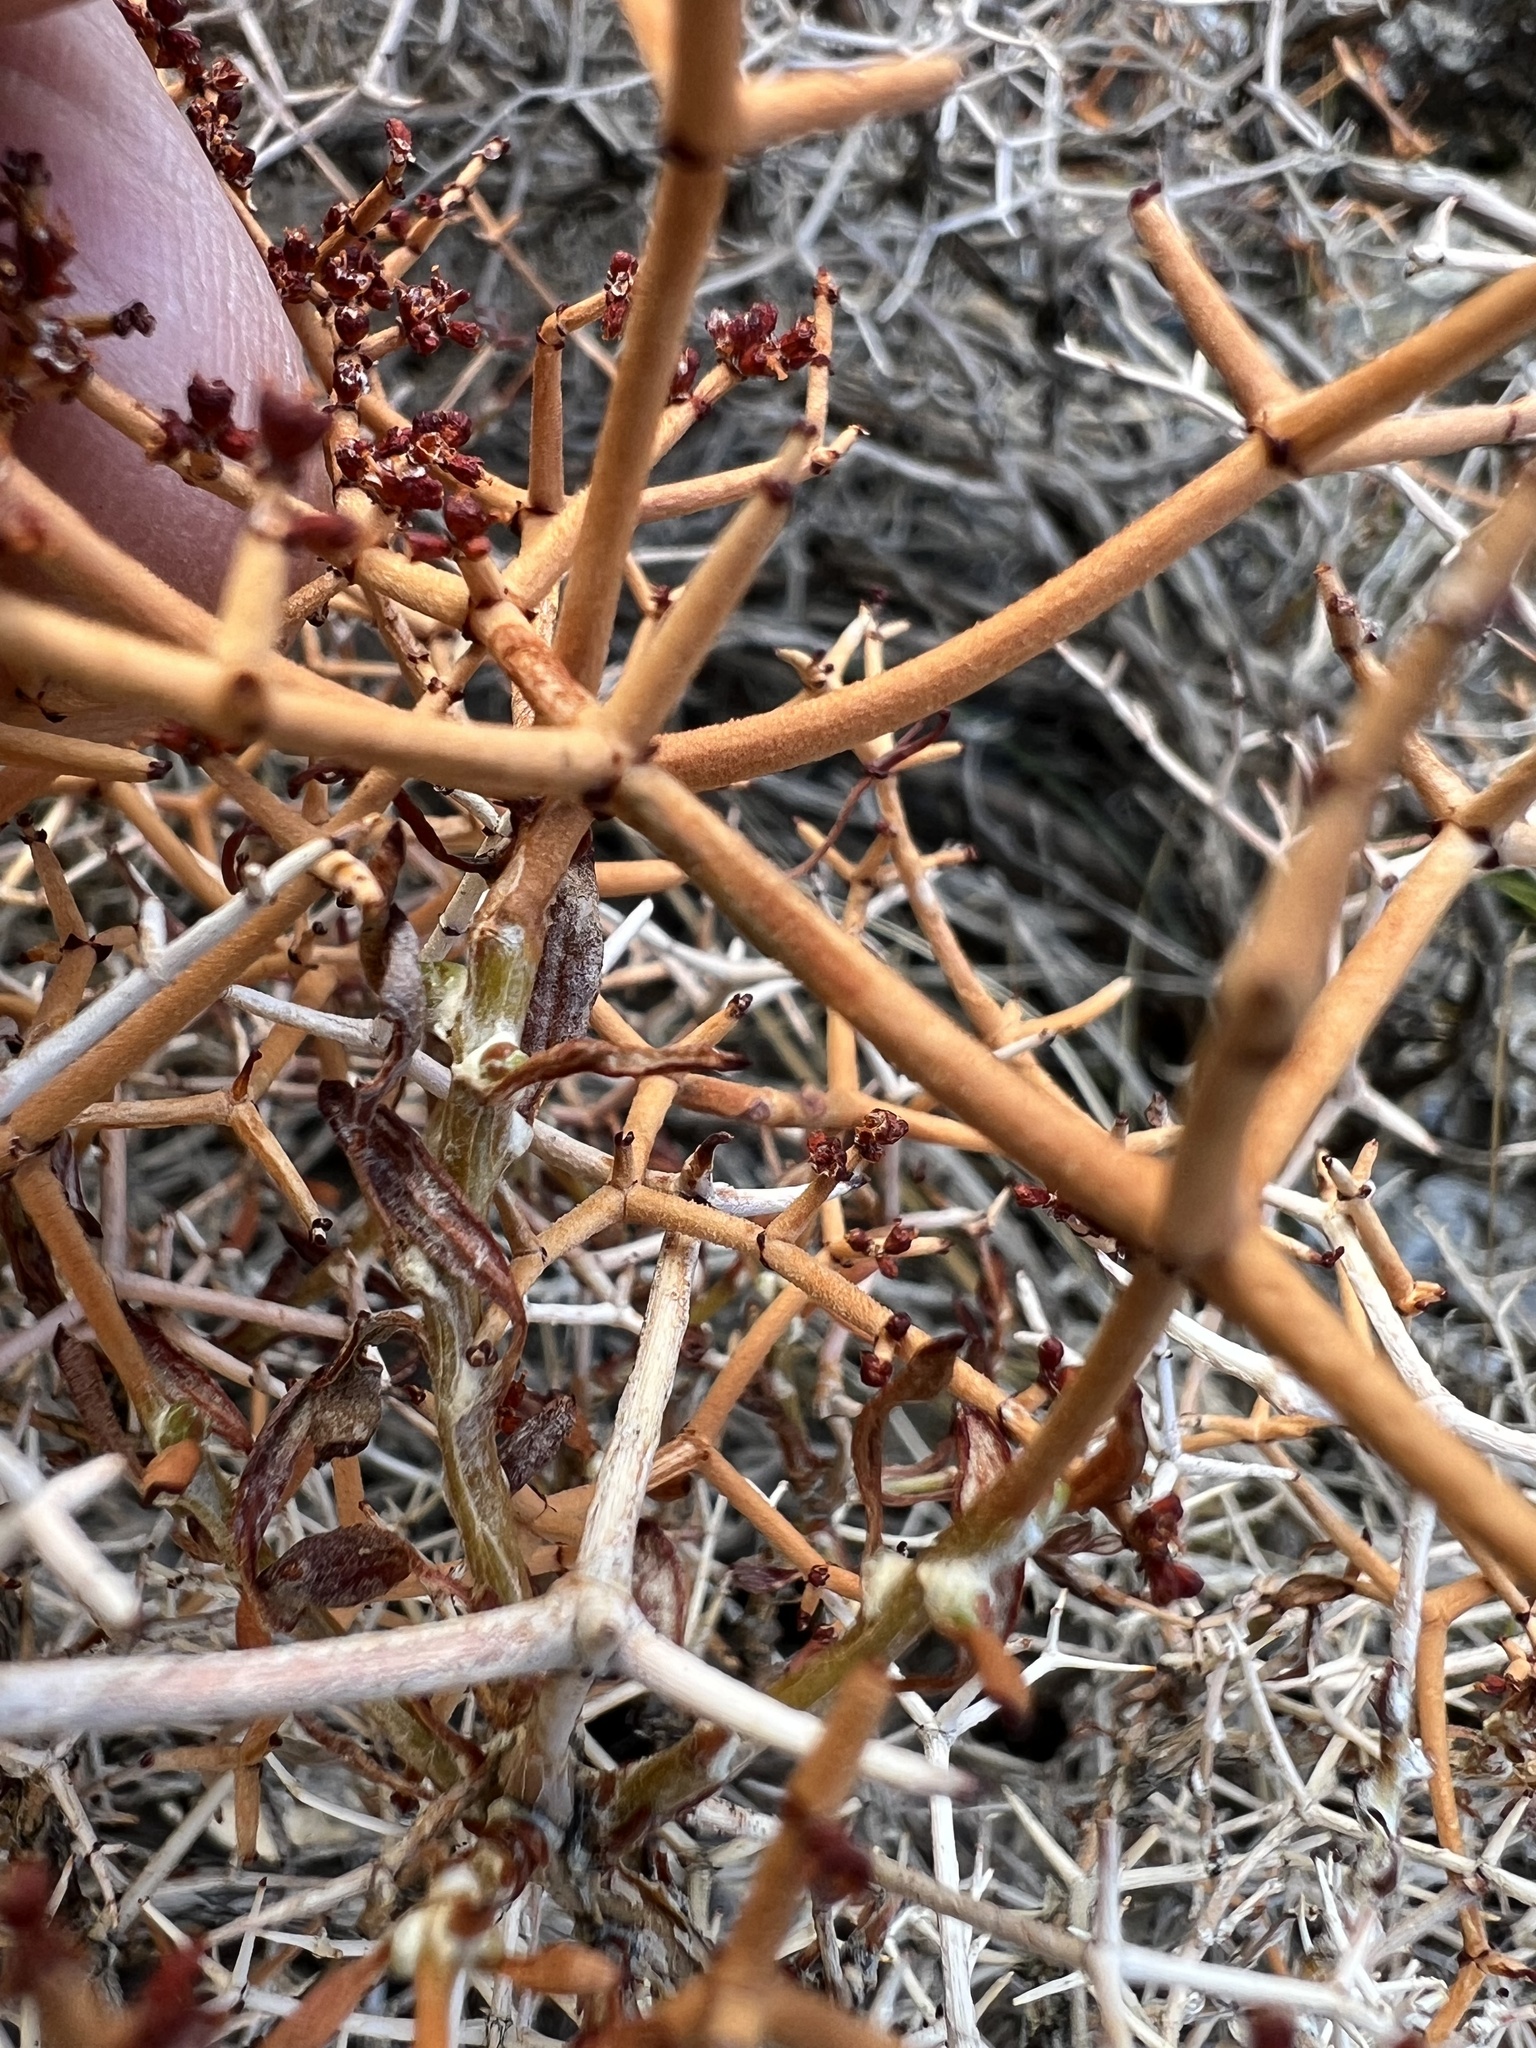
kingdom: Plantae
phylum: Tracheophyta
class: Magnoliopsida
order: Caryophyllales
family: Polygonaceae
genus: Eriogonum
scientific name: Eriogonum heermannii
